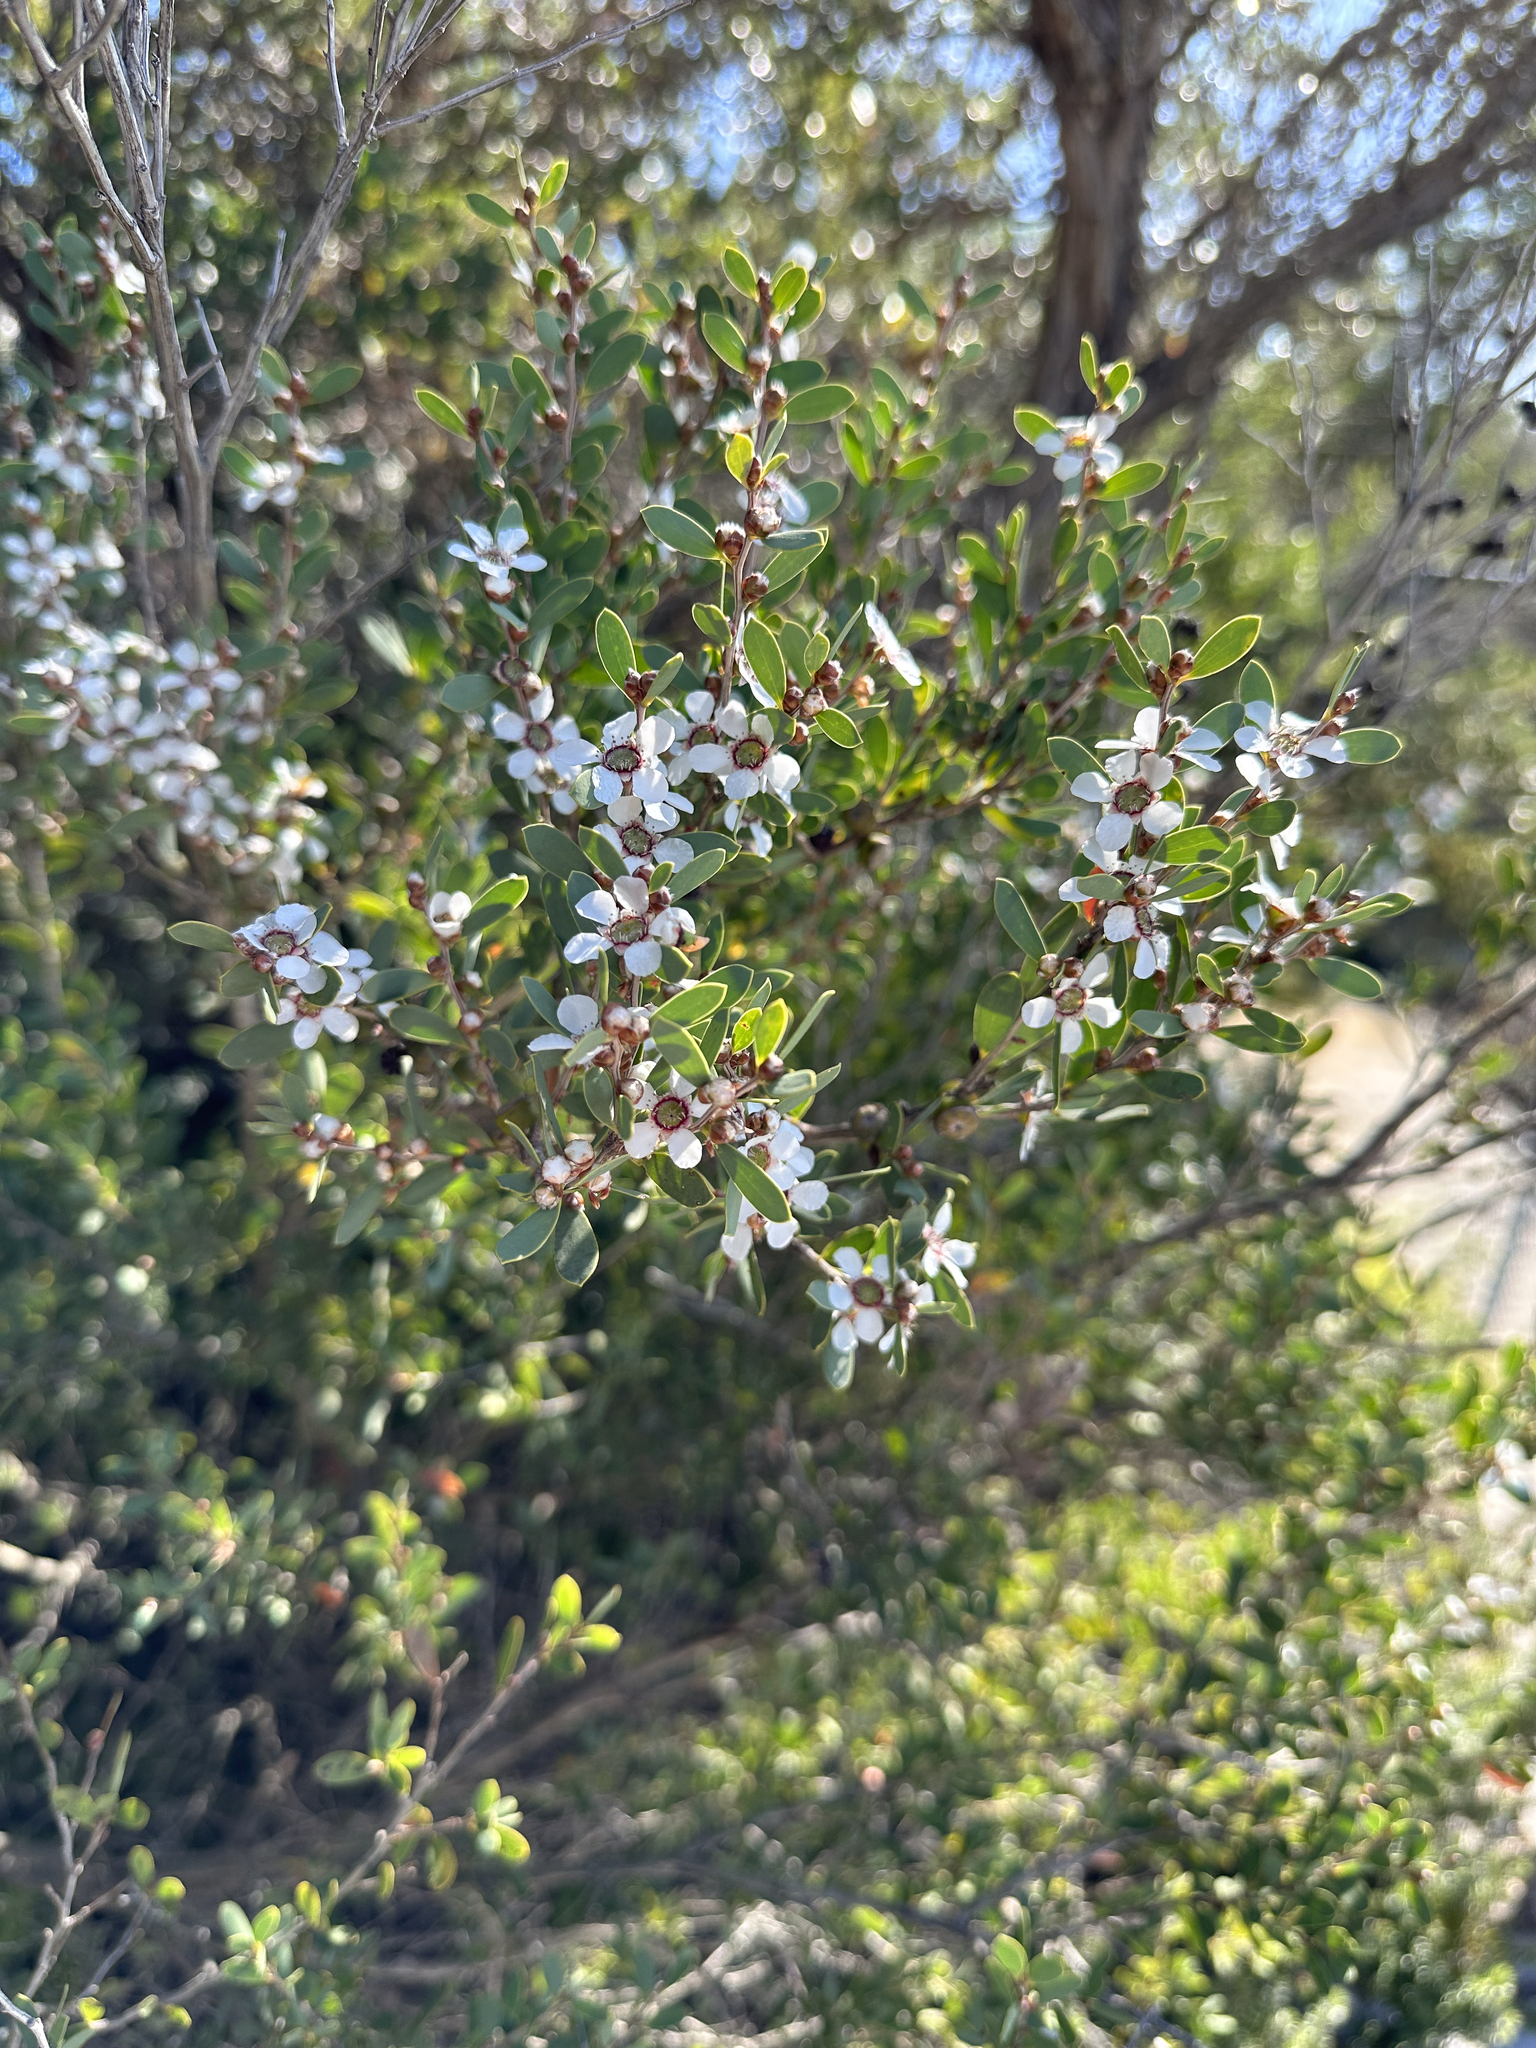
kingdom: Plantae
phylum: Tracheophyta
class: Magnoliopsida
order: Myrtales
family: Myrtaceae
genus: Leptospermum
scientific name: Leptospermum laevigatum
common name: Australian teatree
